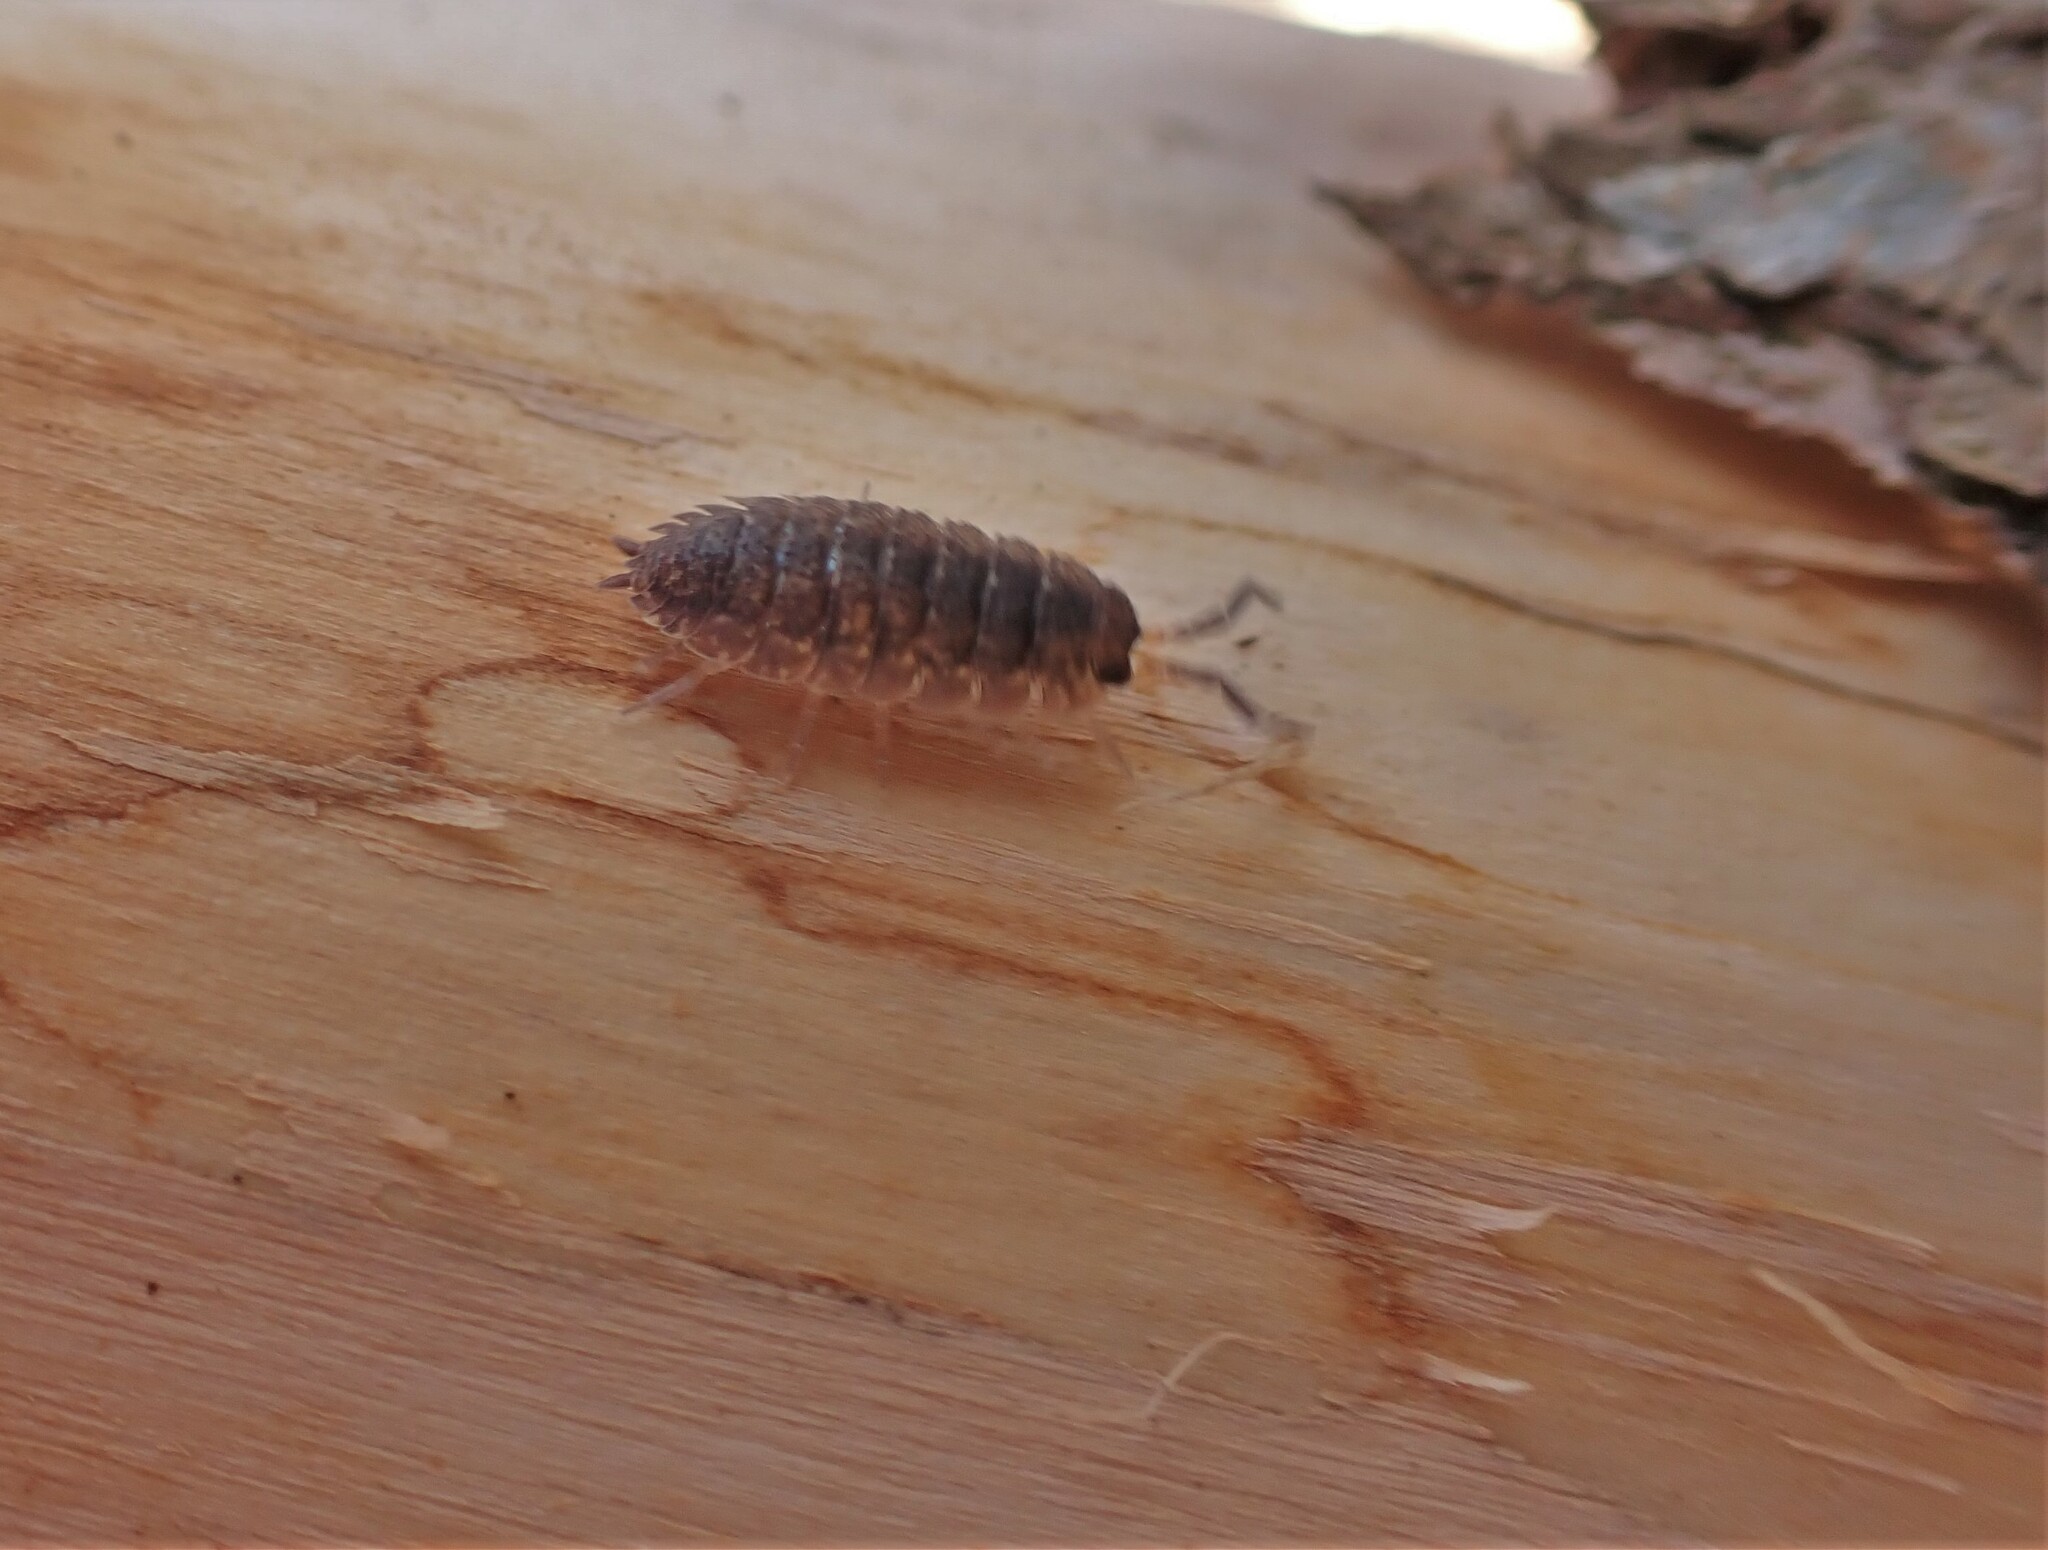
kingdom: Animalia
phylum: Arthropoda
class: Malacostraca
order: Isopoda
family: Porcellionidae
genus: Porcellio
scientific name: Porcellio scaber
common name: Common rough woodlouse
